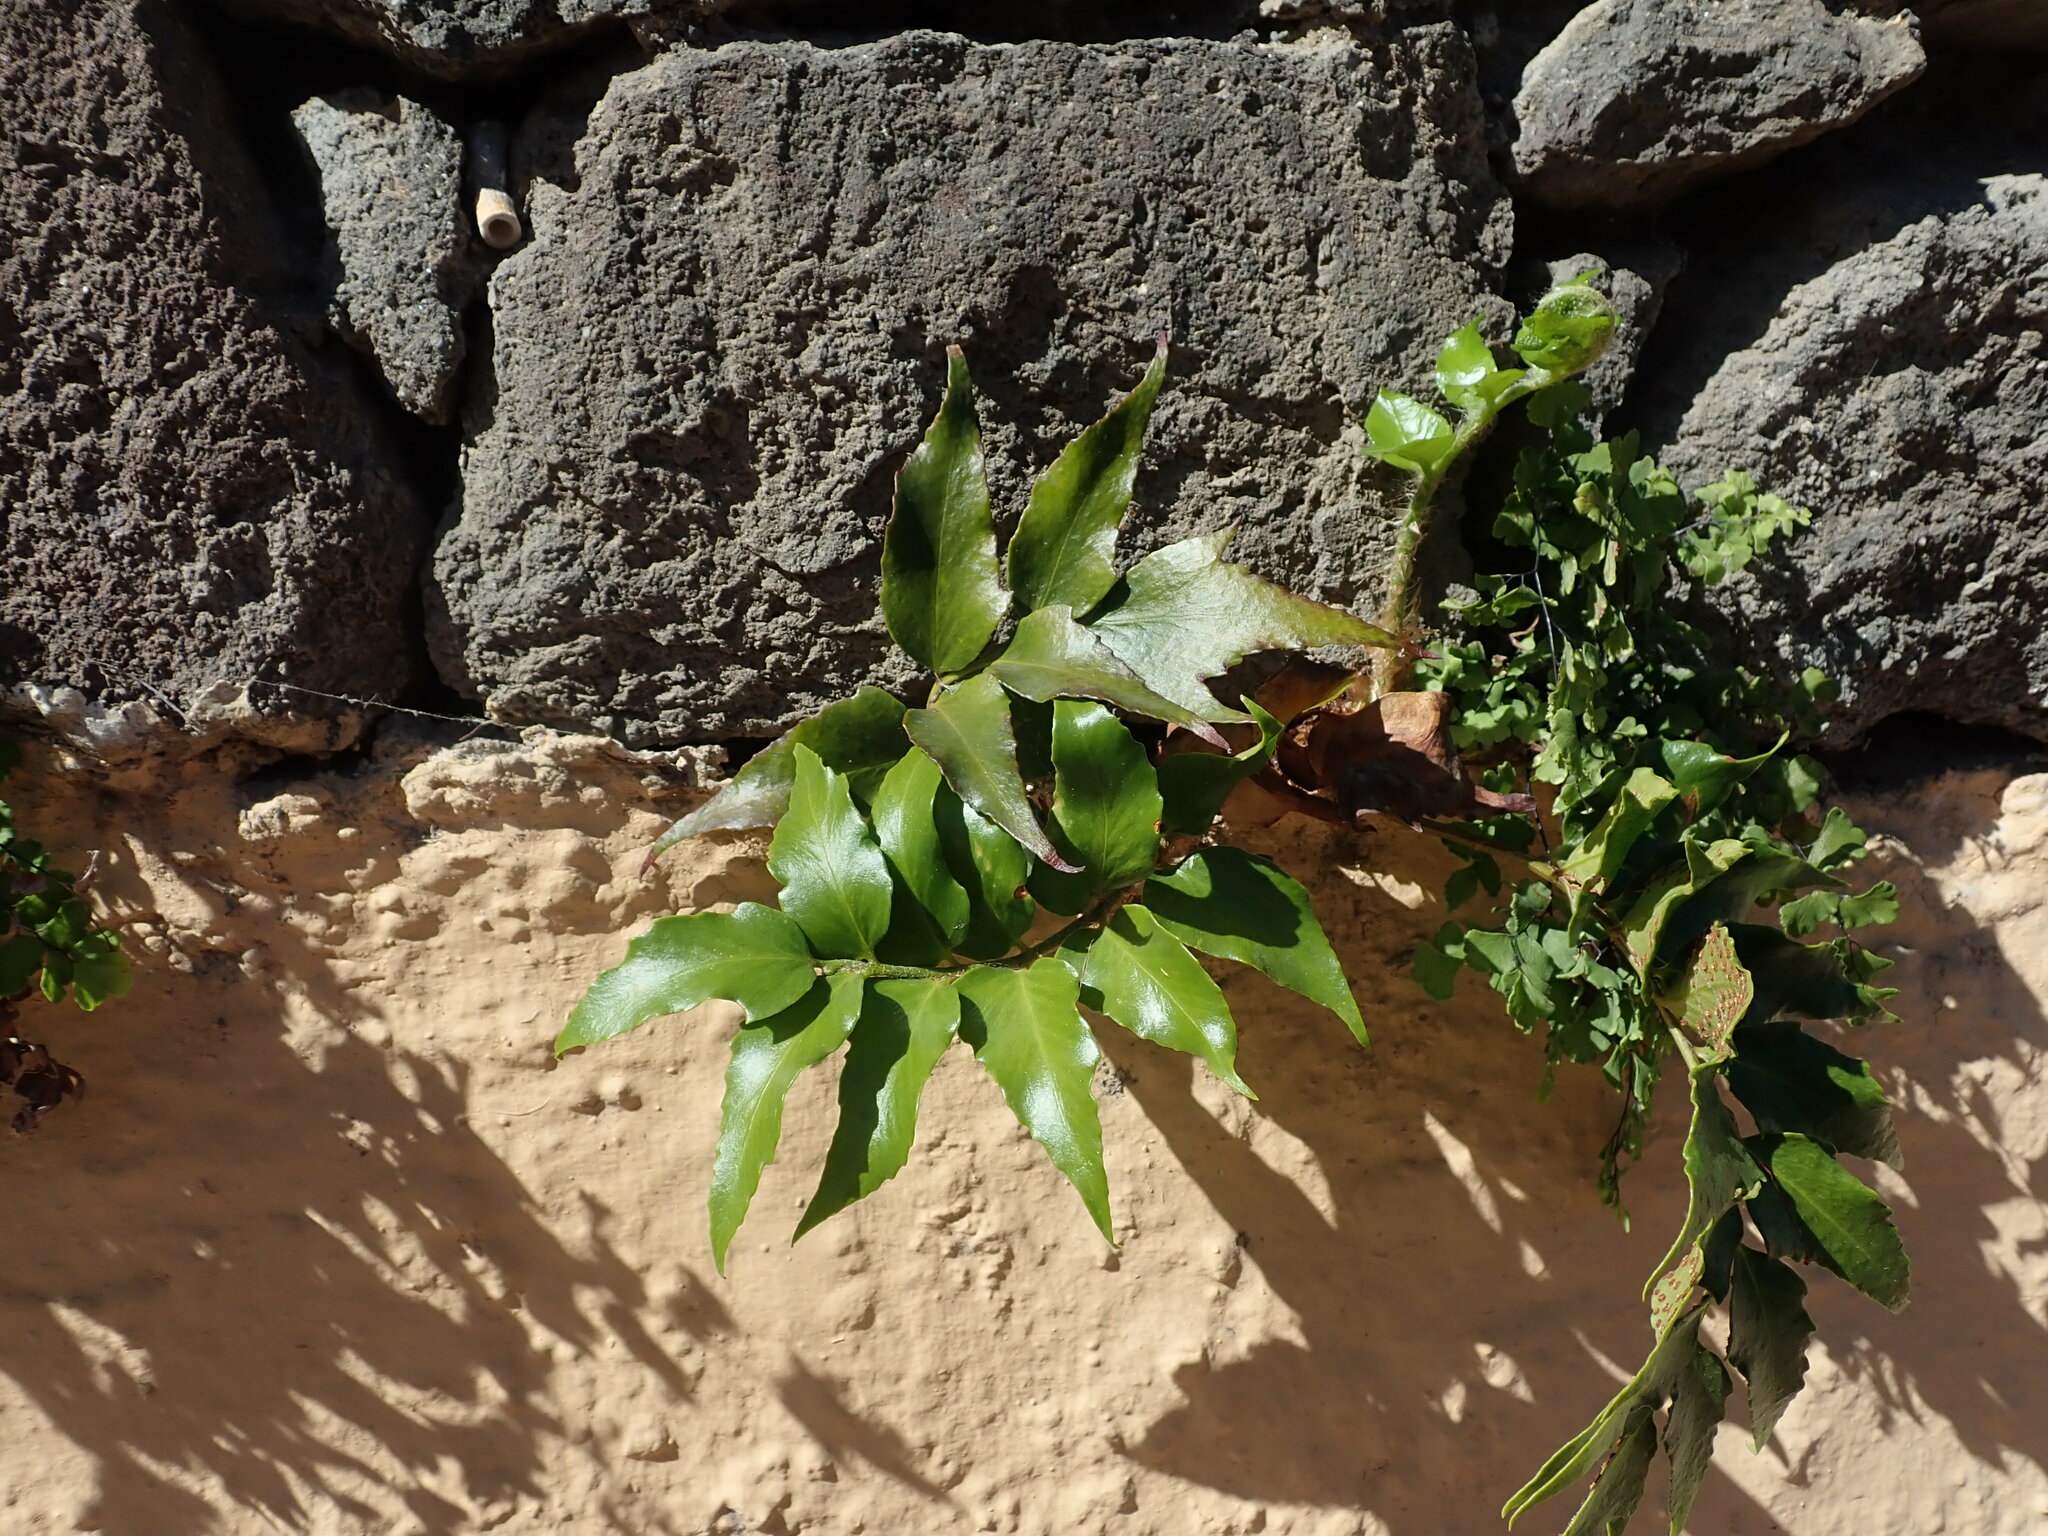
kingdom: Plantae
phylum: Tracheophyta
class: Polypodiopsida
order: Polypodiales
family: Dryopteridaceae
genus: Cyrtomium
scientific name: Cyrtomium falcatum
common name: House holly-fern
